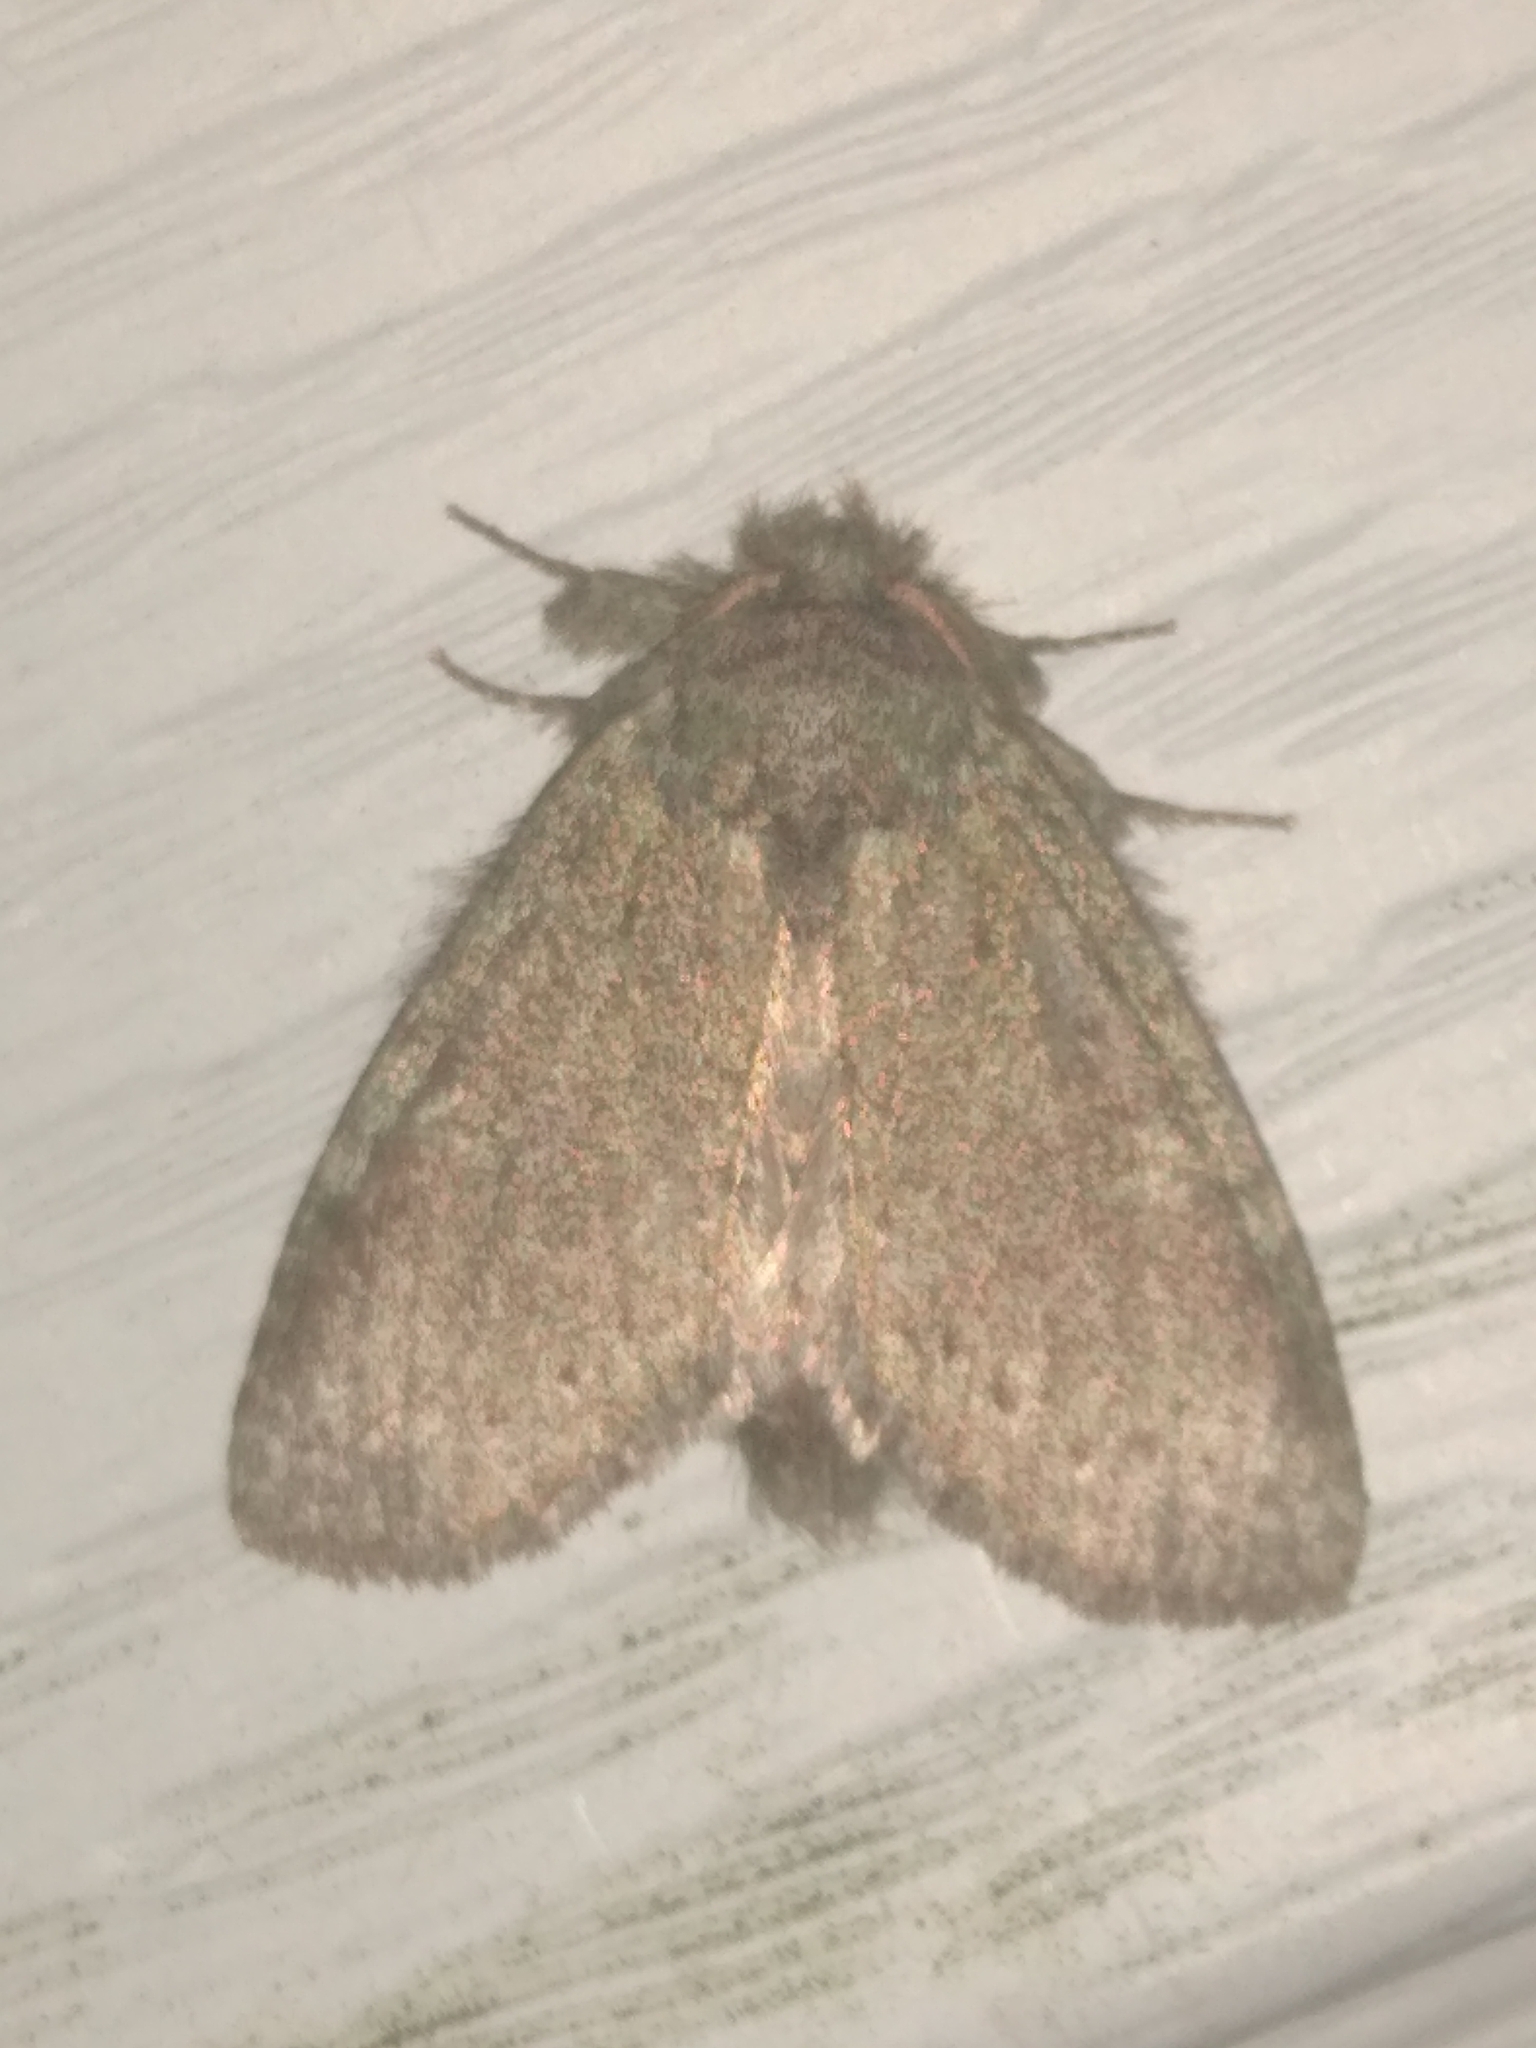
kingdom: Animalia
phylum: Arthropoda
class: Insecta
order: Lepidoptera
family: Notodontidae
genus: Disphragis
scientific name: Disphragis Cecrita guttivitta
